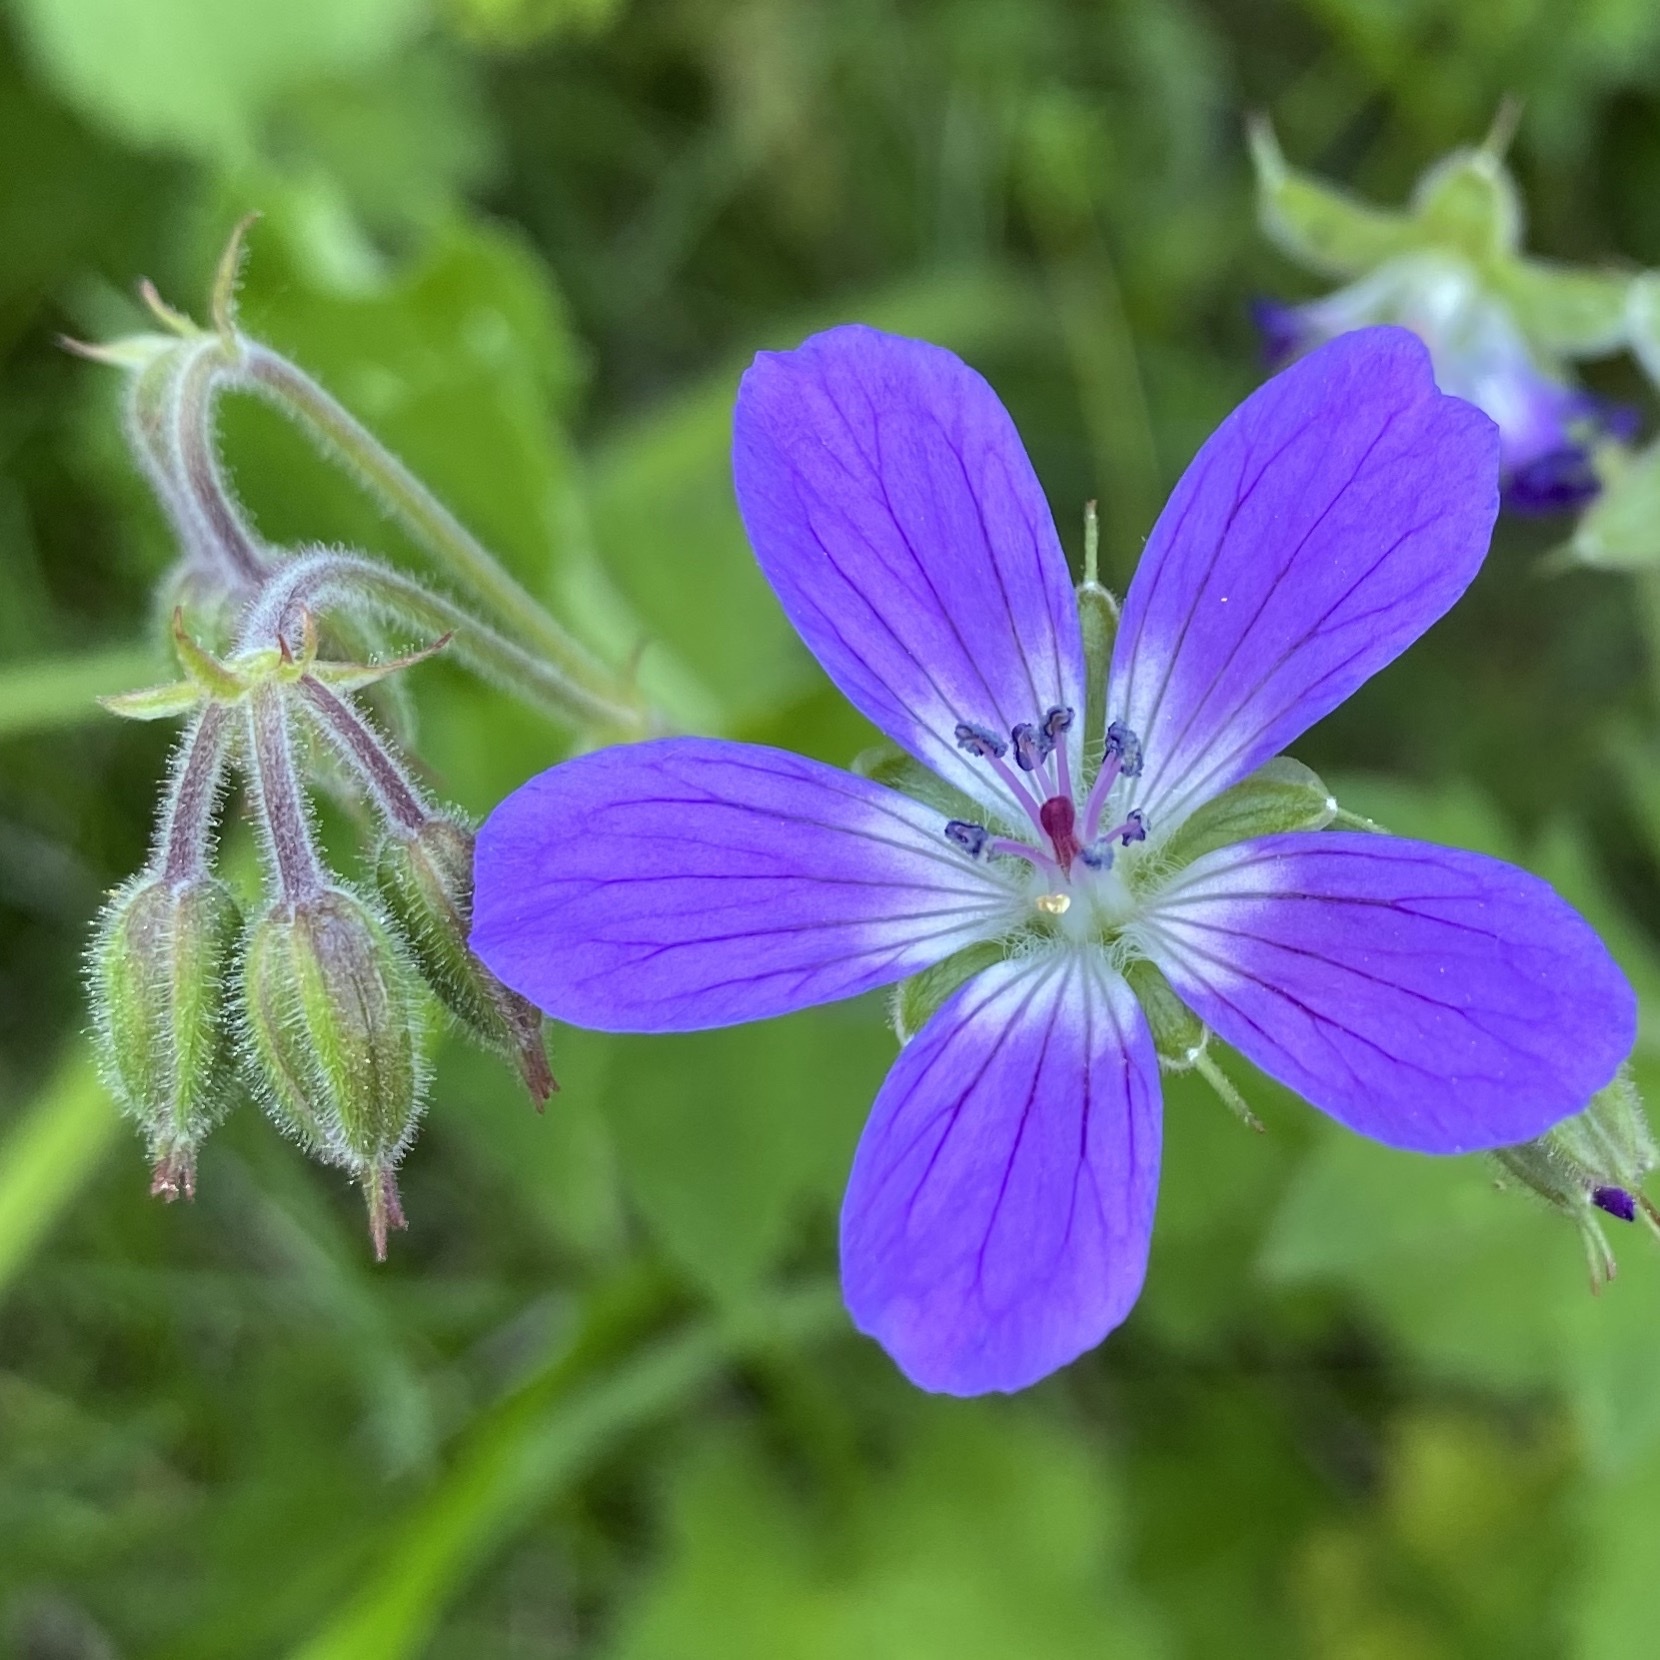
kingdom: Plantae
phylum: Tracheophyta
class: Magnoliopsida
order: Geraniales
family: Geraniaceae
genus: Geranium
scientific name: Geranium sylvaticum
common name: Wood crane's-bill
